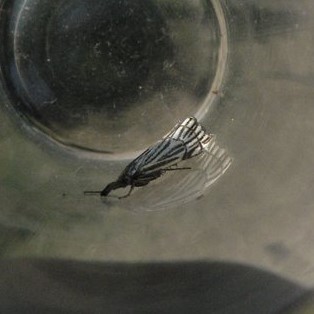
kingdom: Animalia
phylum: Arthropoda
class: Insecta
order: Lepidoptera
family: Crambidae
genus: Chrysocrambus
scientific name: Chrysocrambus Chrysocramboides craterellus
